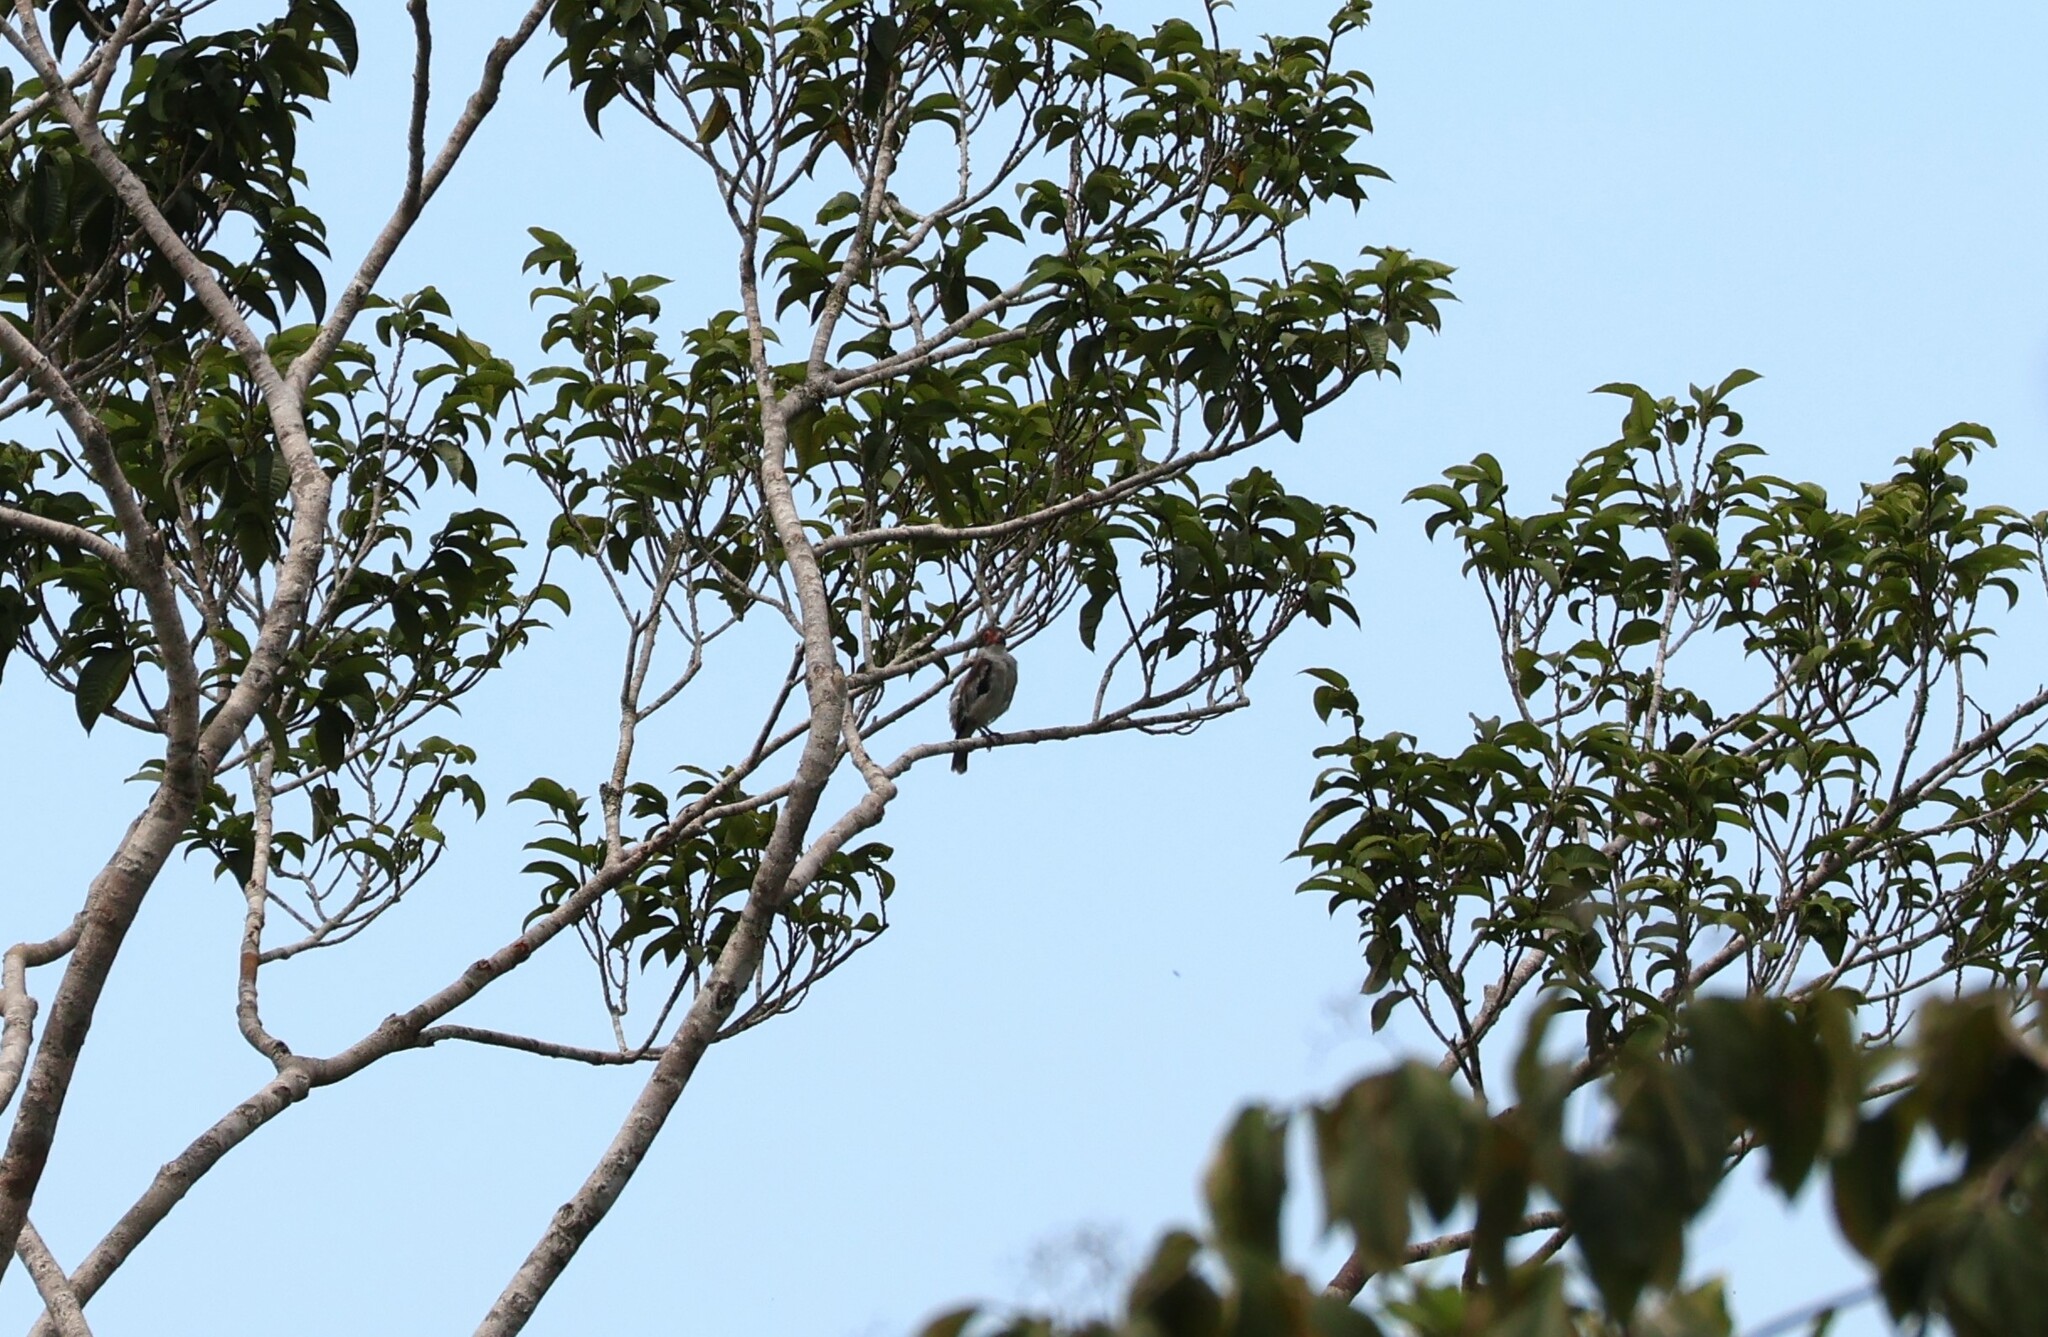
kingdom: Animalia
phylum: Chordata
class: Aves
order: Passeriformes
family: Cotingidae
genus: Tityra
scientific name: Tityra semifasciata
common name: Masked tityra
